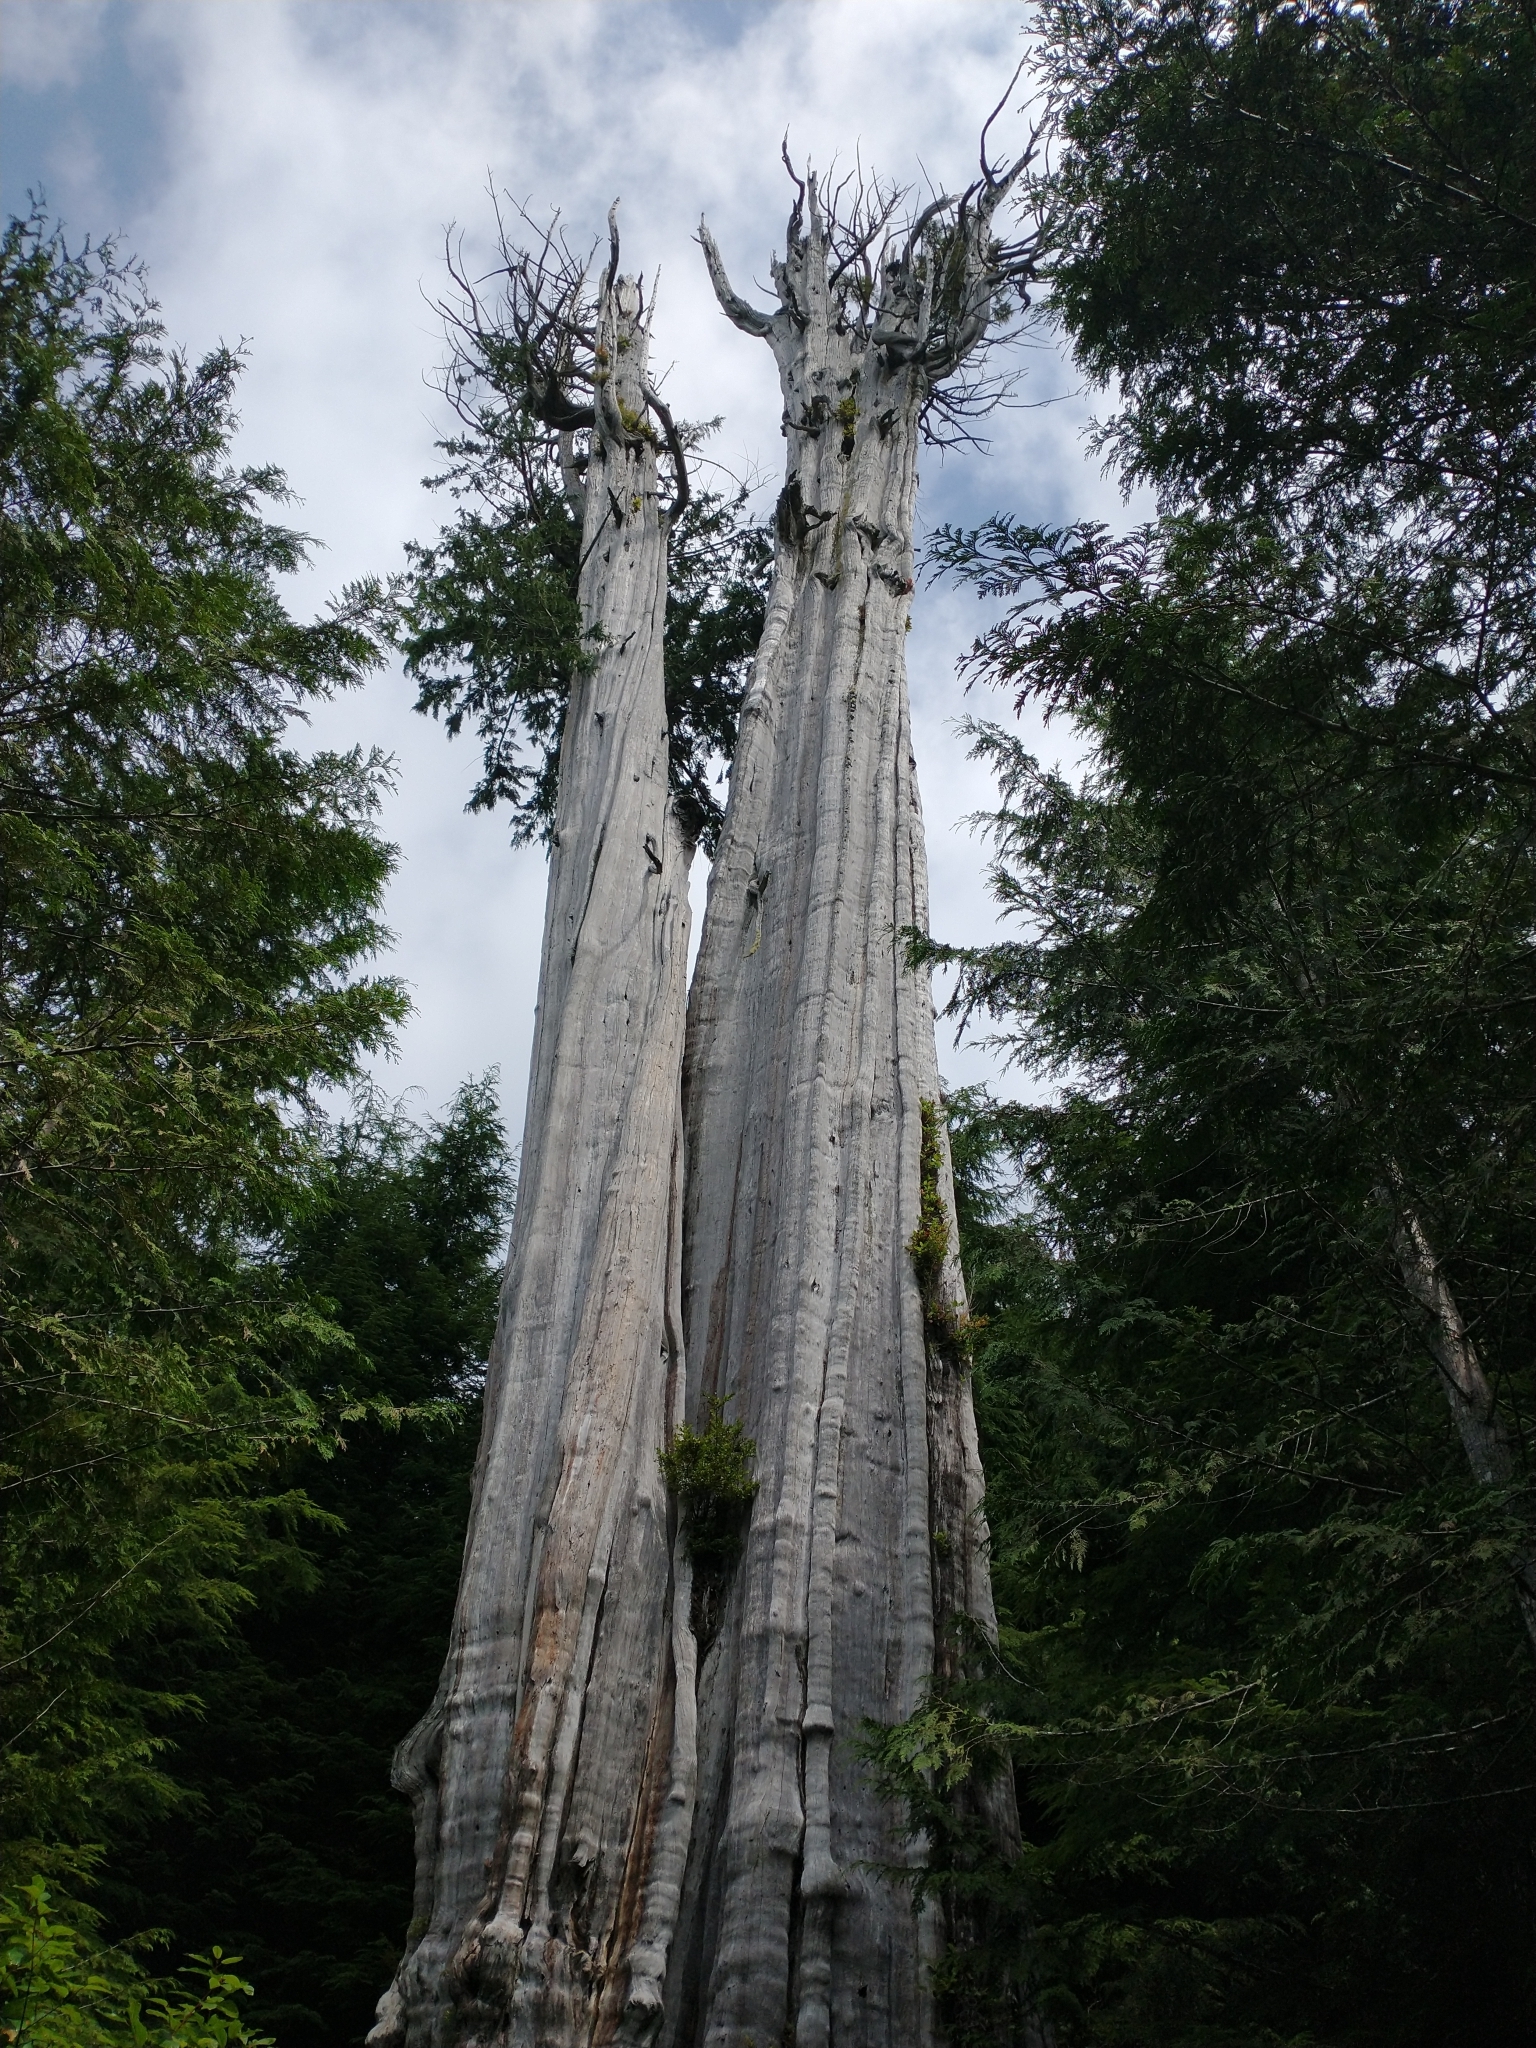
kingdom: Plantae
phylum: Tracheophyta
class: Pinopsida
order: Pinales
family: Cupressaceae
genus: Thuja
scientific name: Thuja plicata
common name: Western red-cedar
